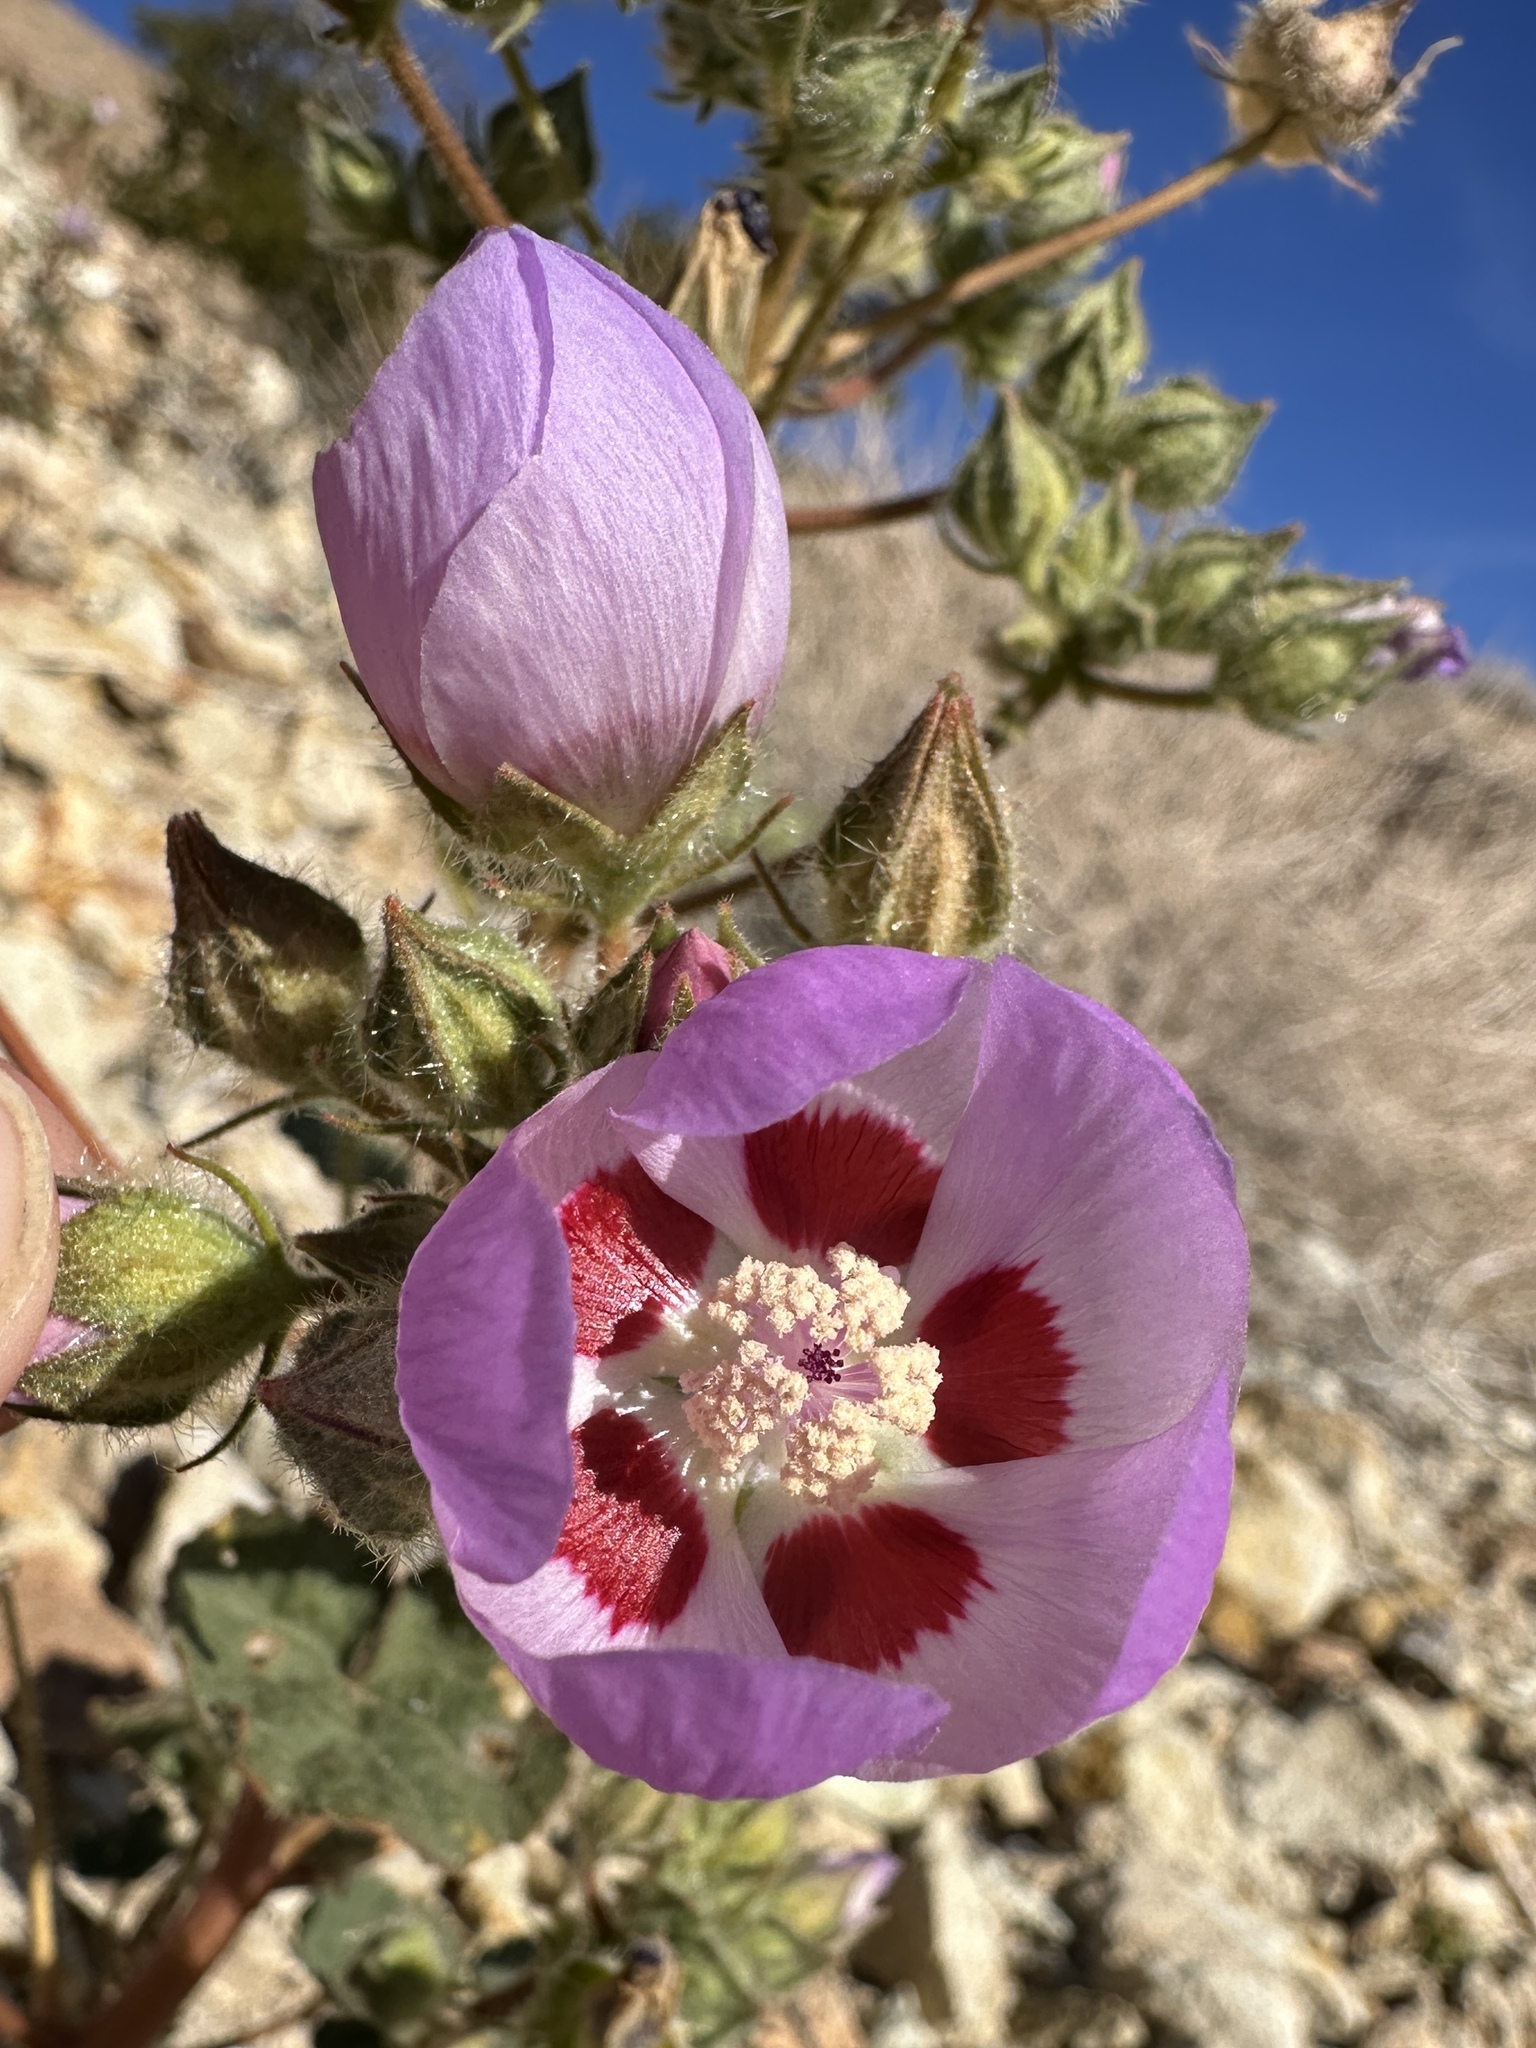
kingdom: Plantae
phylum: Tracheophyta
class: Magnoliopsida
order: Malvales
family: Malvaceae
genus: Eremalche
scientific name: Eremalche rotundifolia
